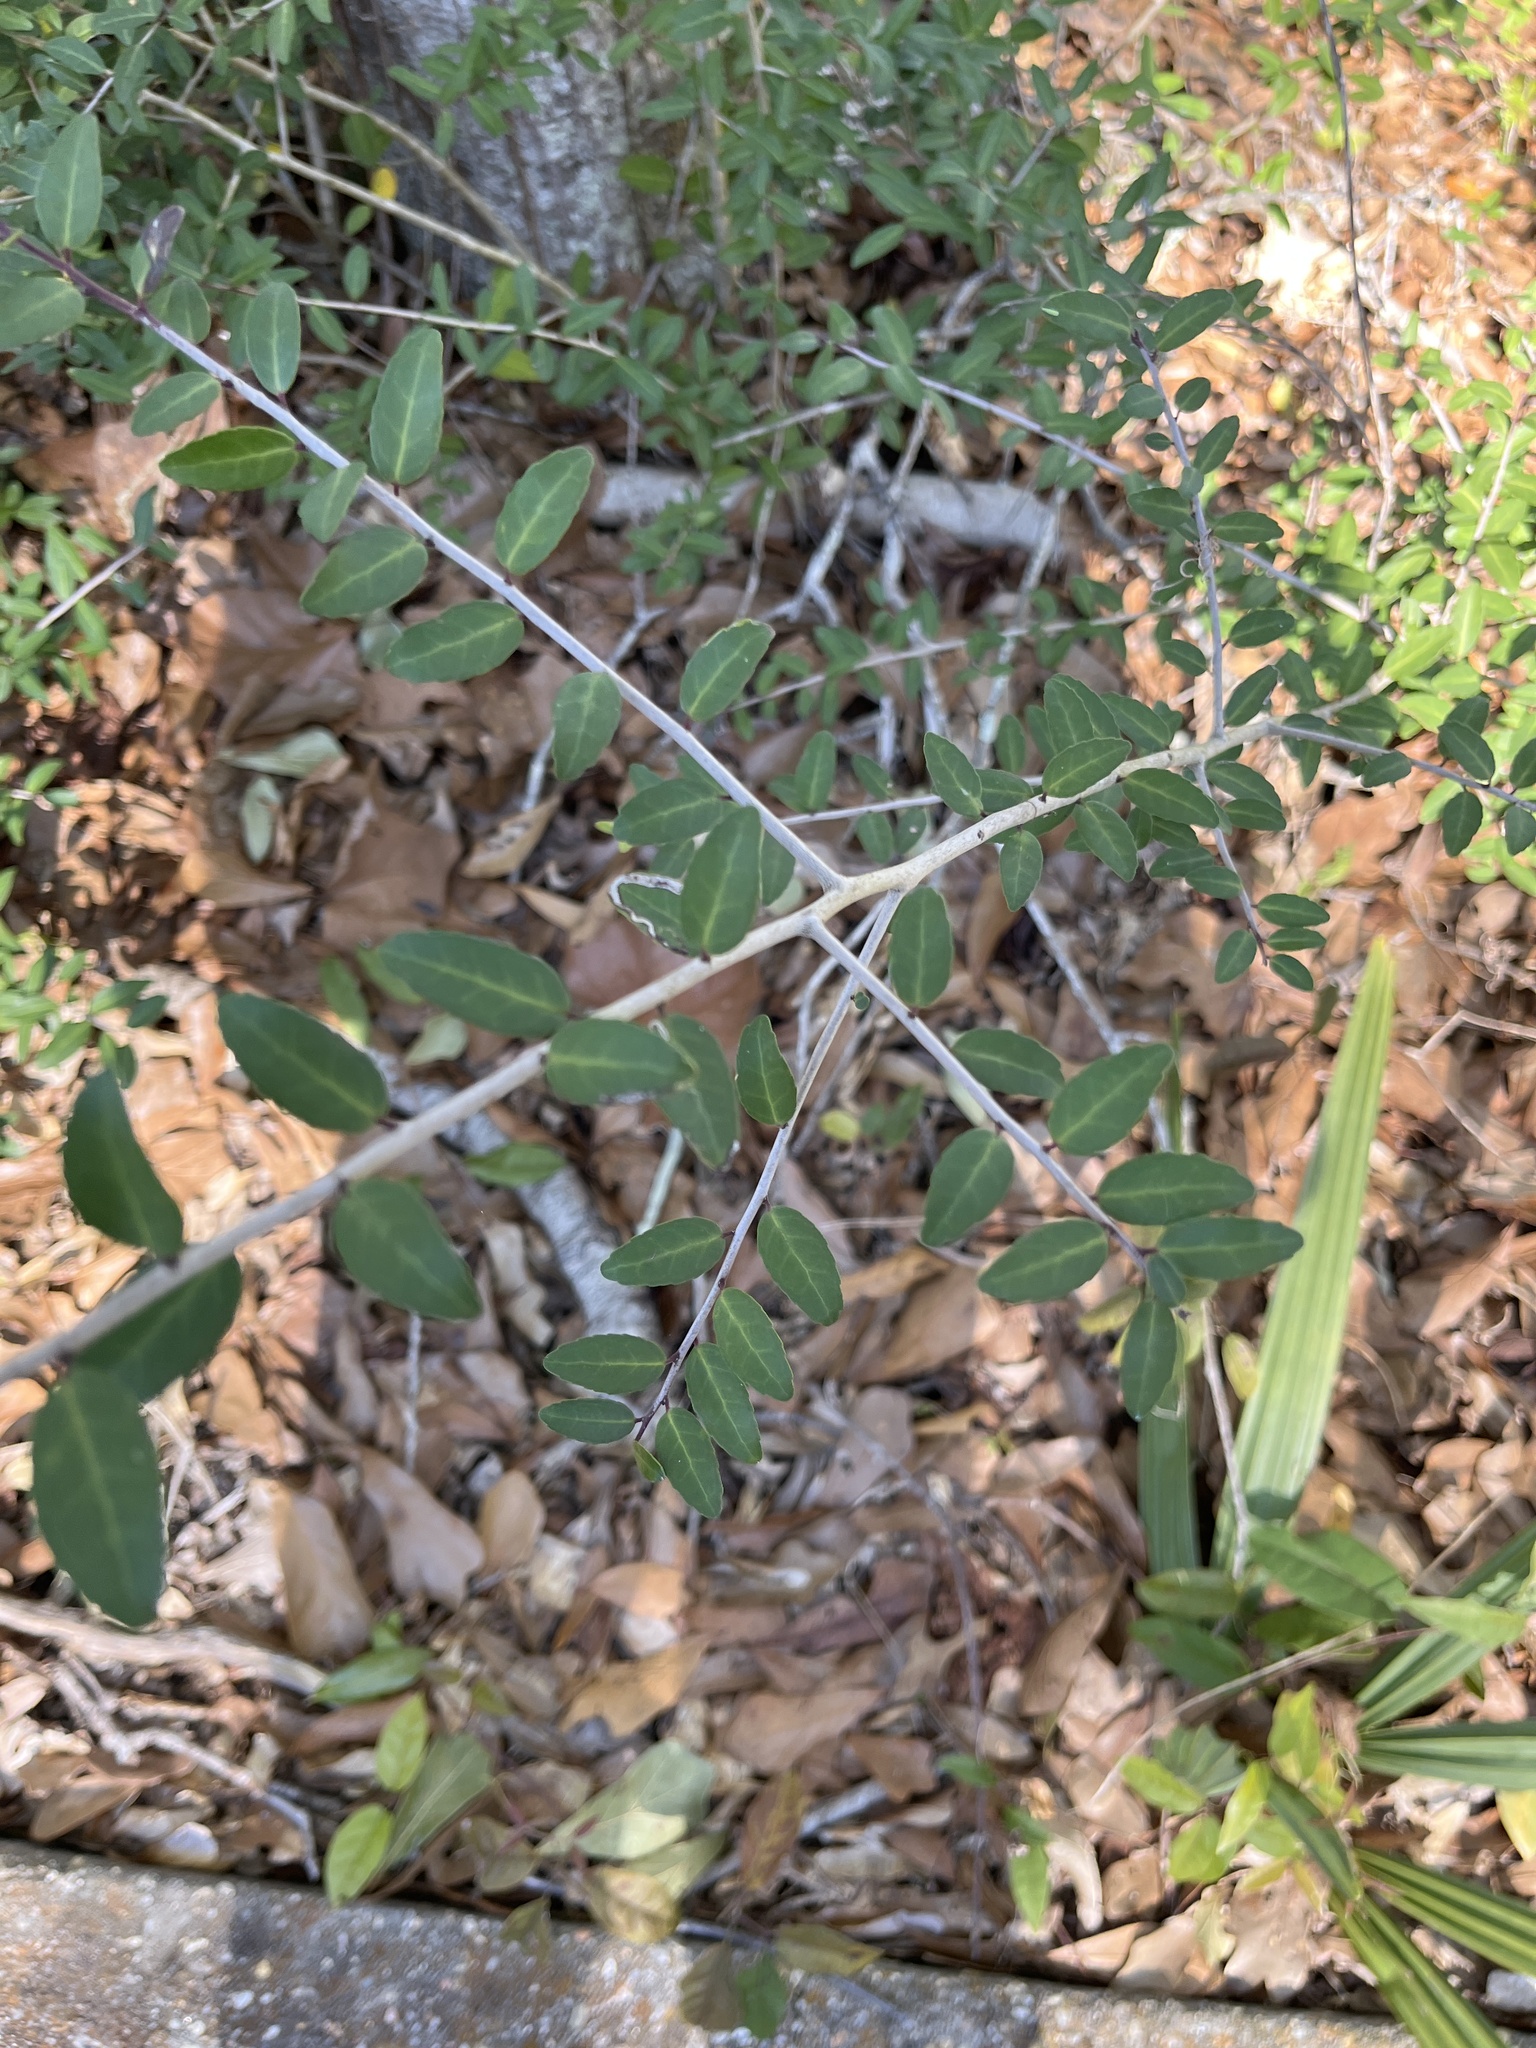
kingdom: Plantae
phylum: Tracheophyta
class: Magnoliopsida
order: Aquifoliales
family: Aquifoliaceae
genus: Ilex
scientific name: Ilex vomitoria
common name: Yaupon holly
